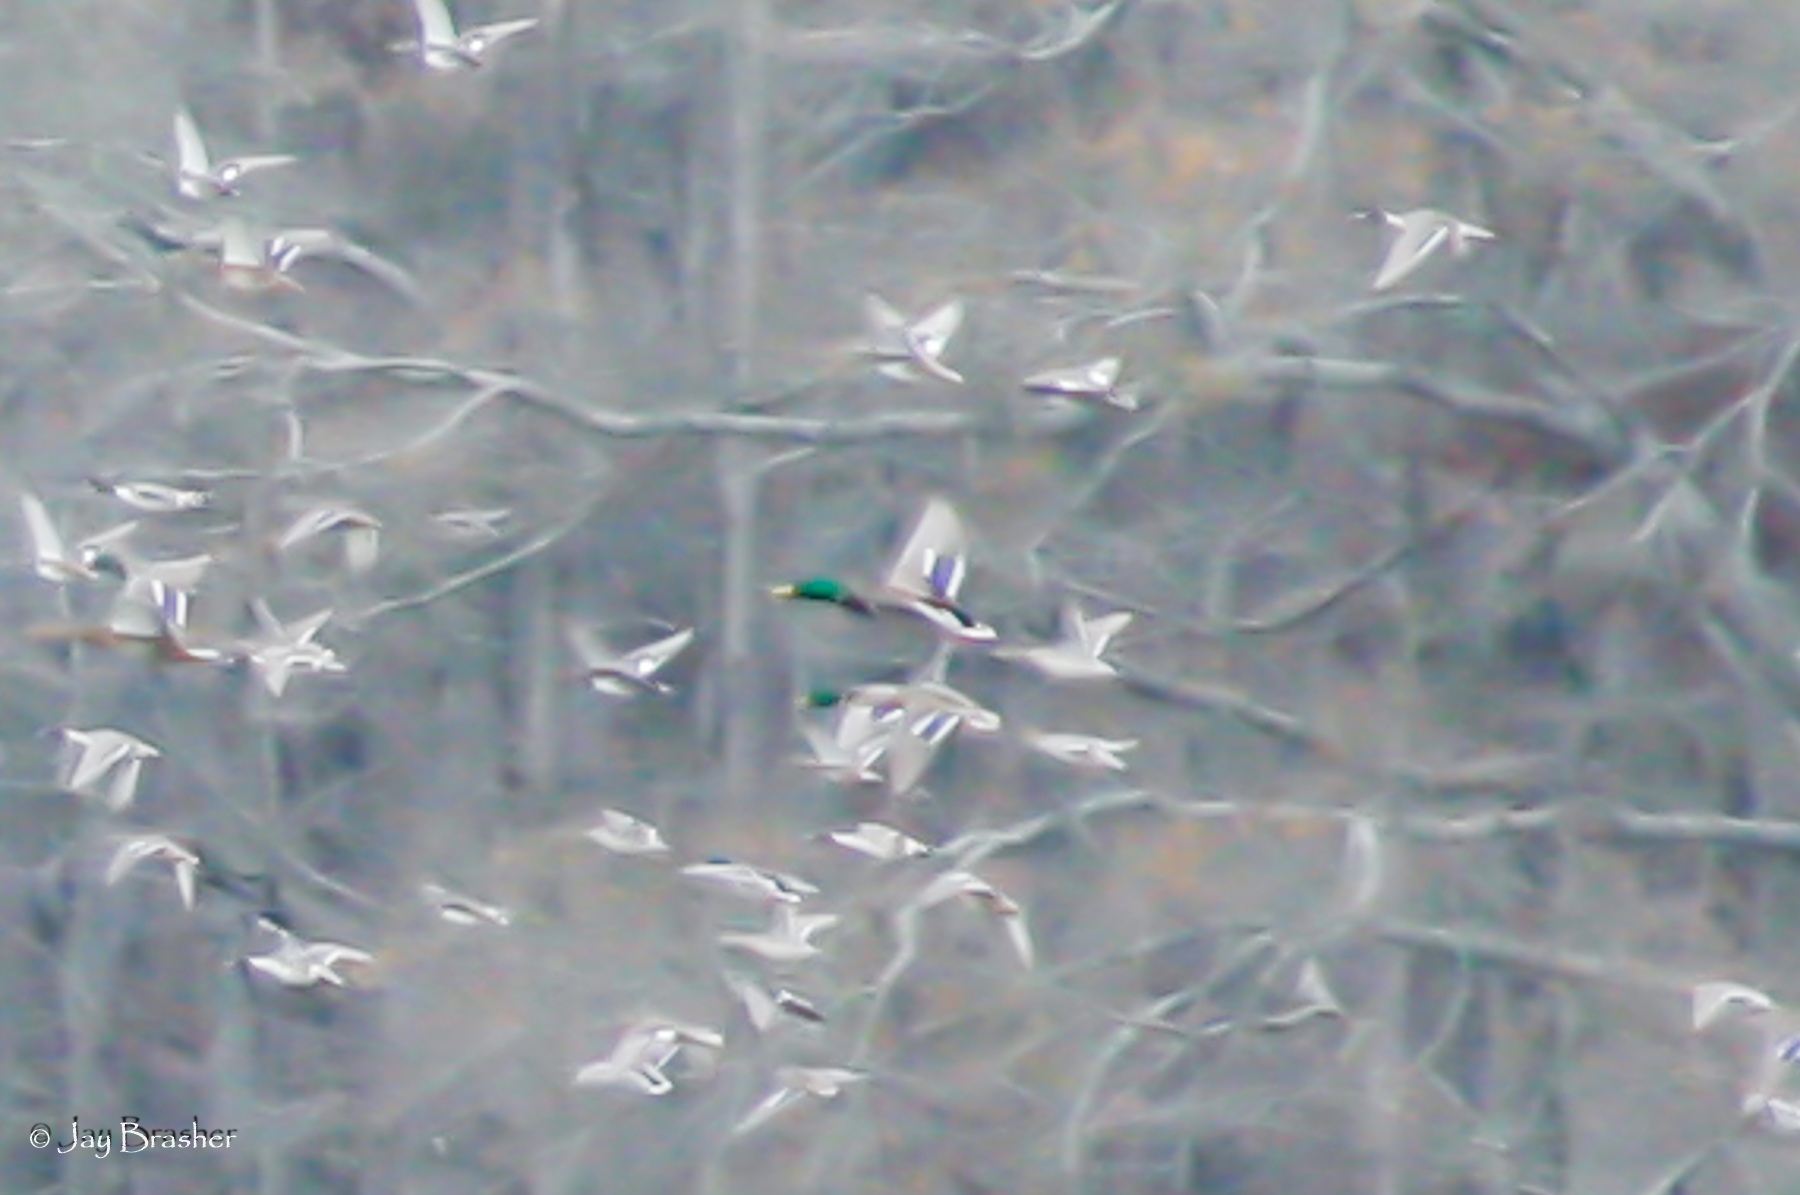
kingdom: Animalia
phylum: Chordata
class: Aves
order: Anseriformes
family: Anatidae
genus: Anas
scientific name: Anas platyrhynchos
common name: Mallard
